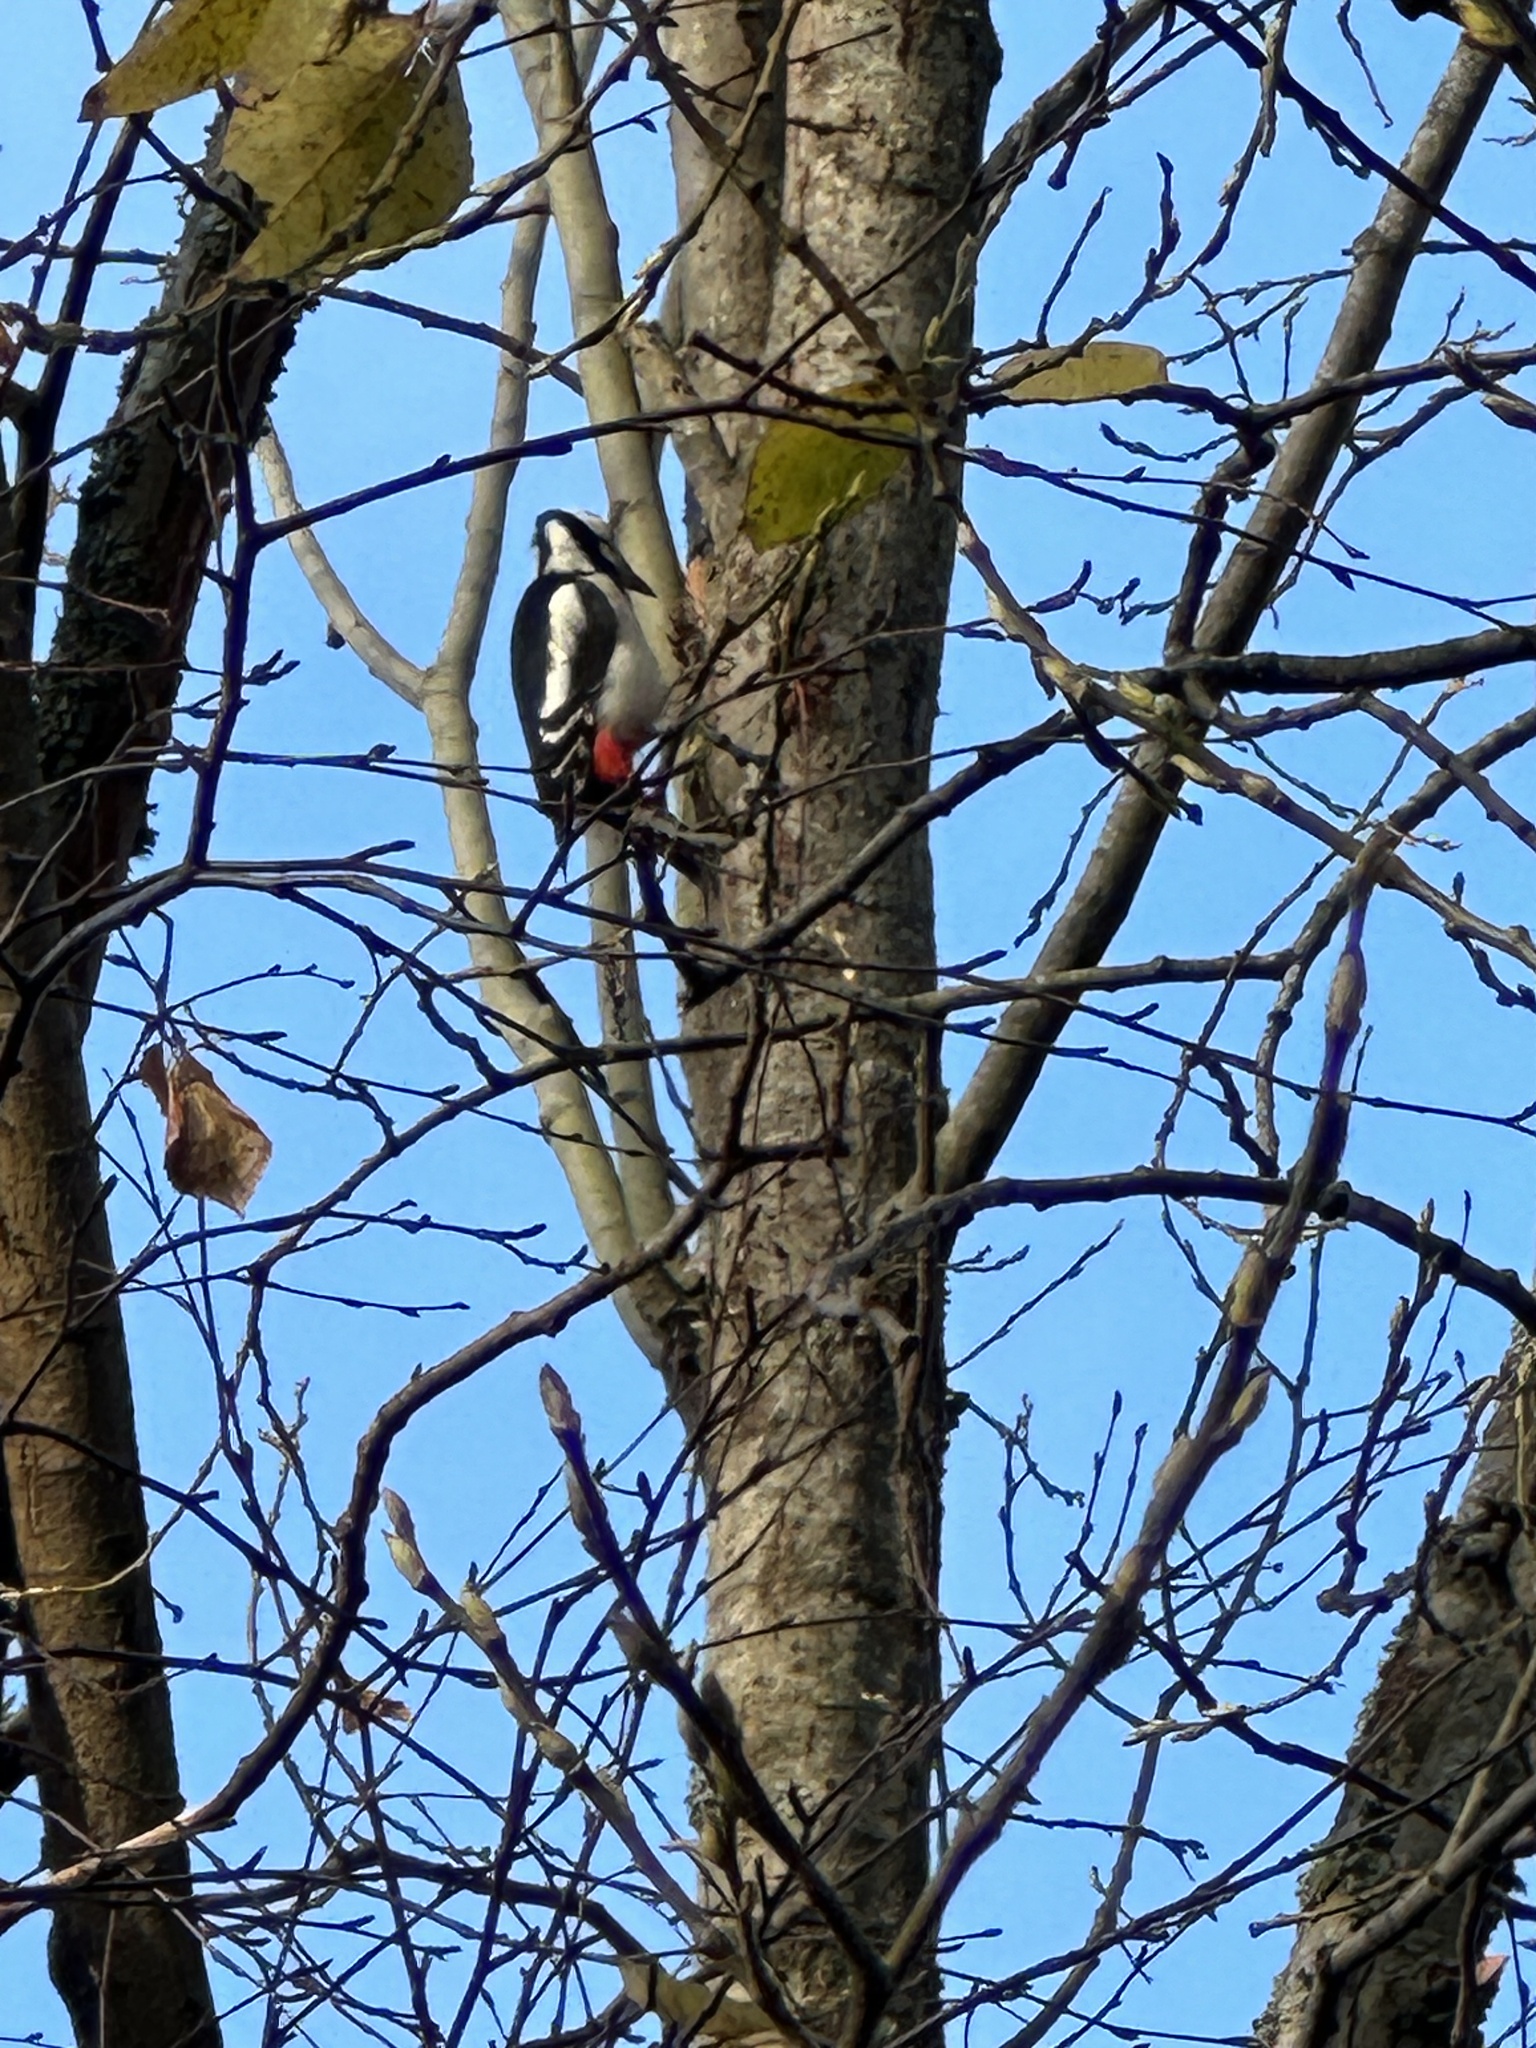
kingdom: Animalia
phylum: Chordata
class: Aves
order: Piciformes
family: Picidae
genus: Dendrocopos
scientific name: Dendrocopos major
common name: Great spotted woodpecker
